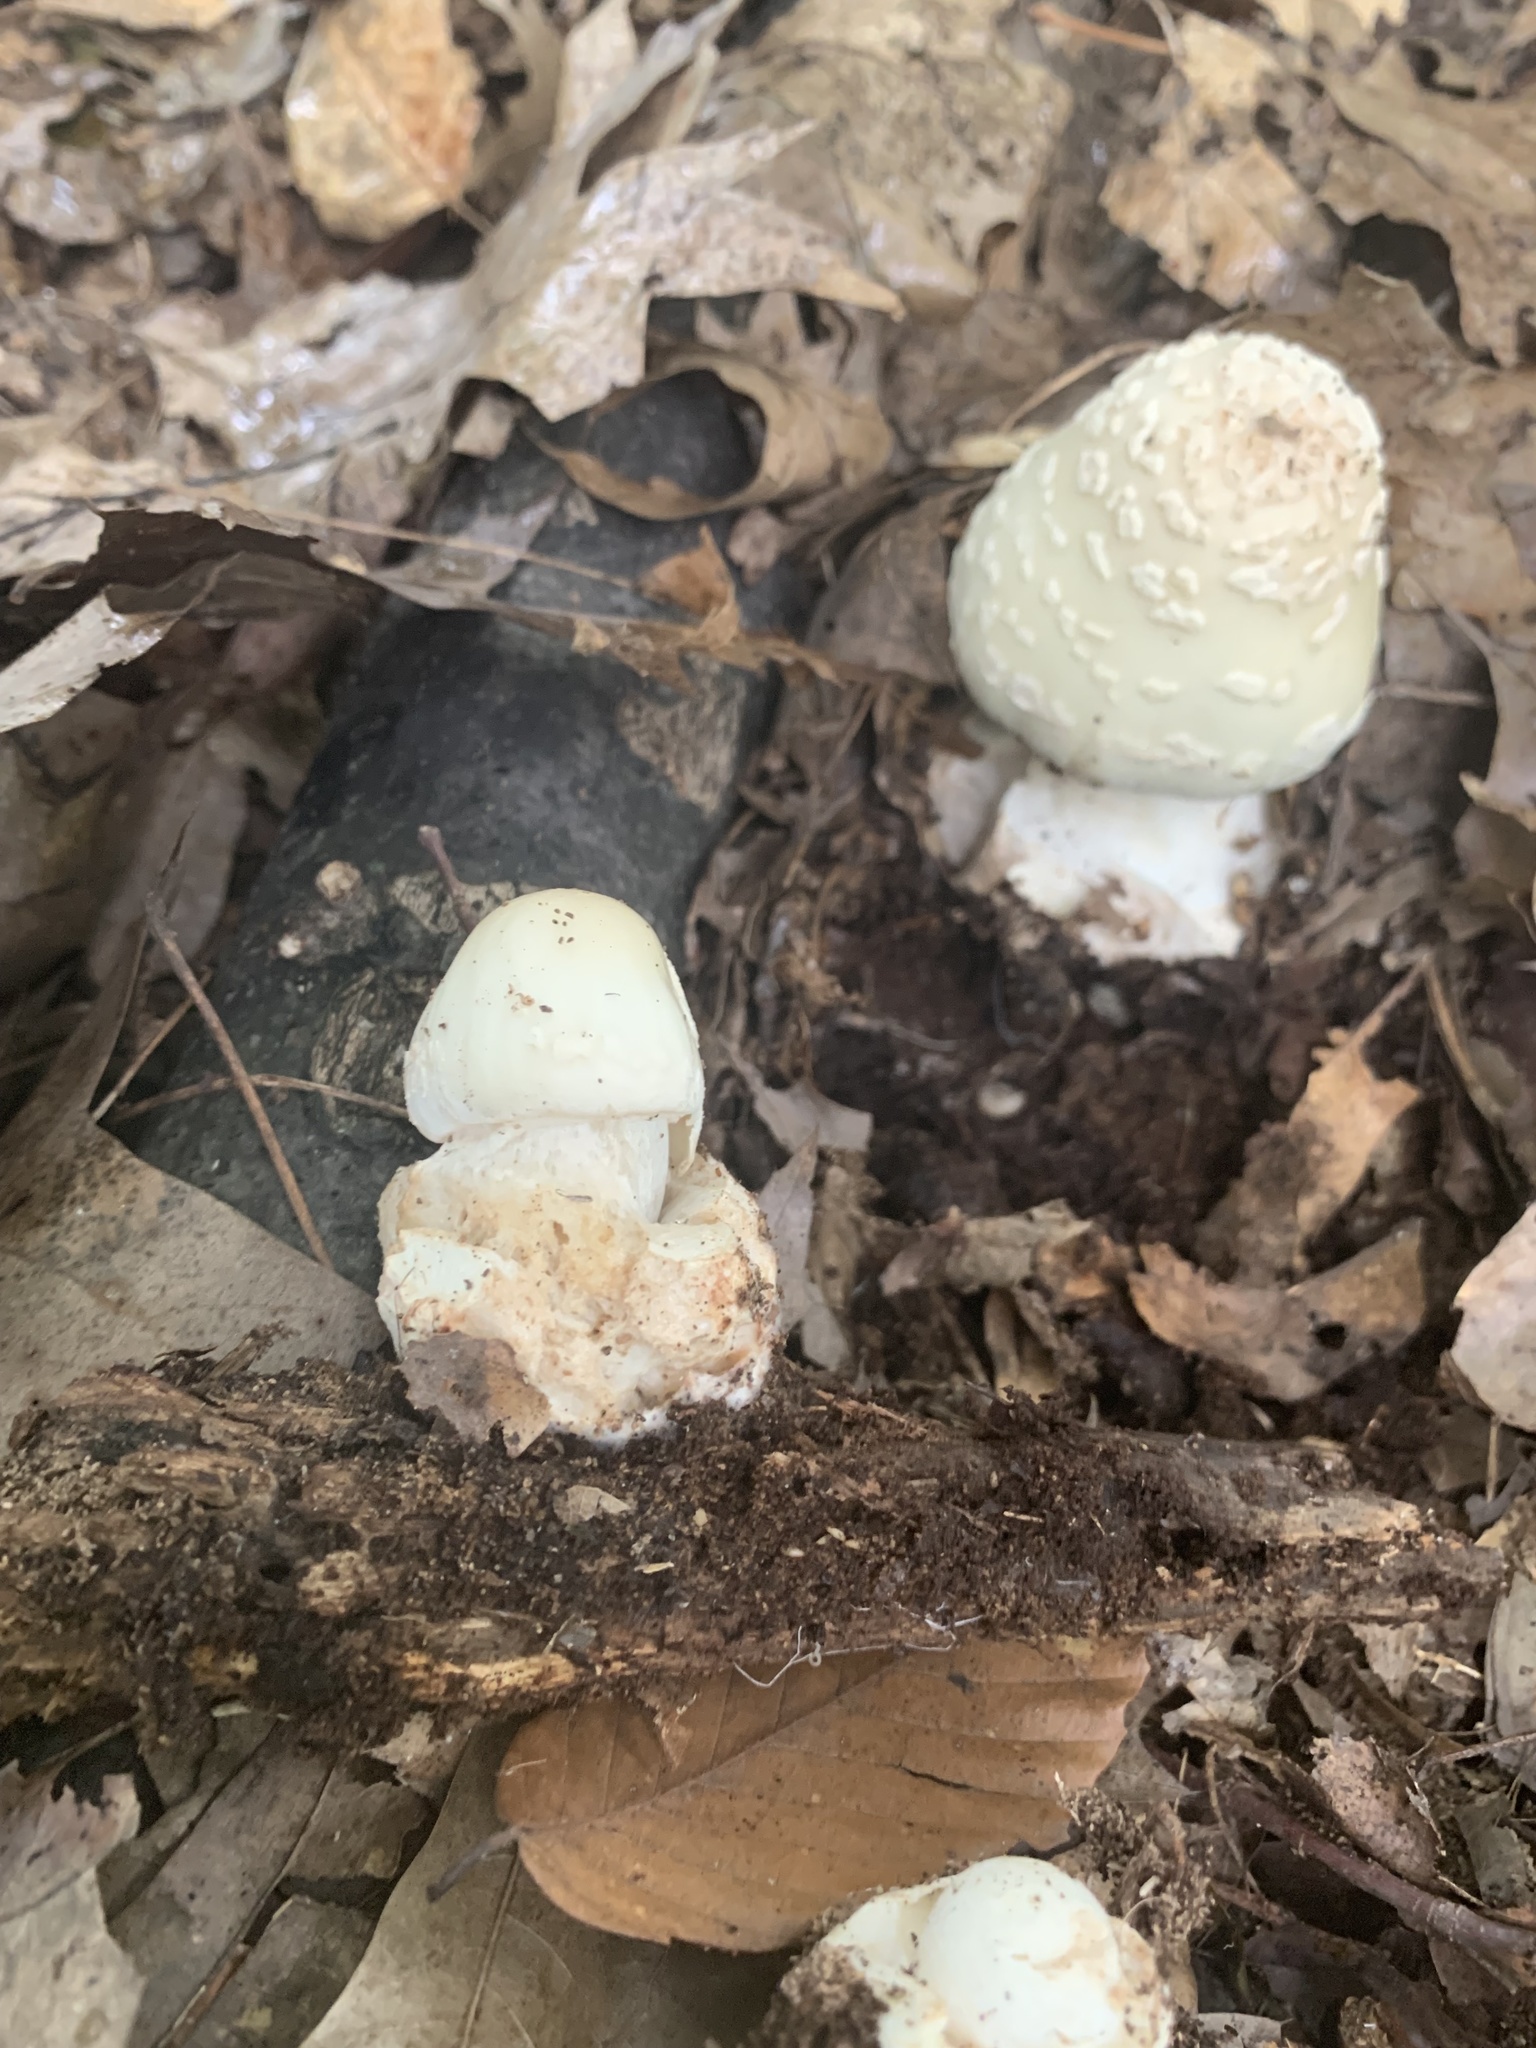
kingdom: Fungi
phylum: Basidiomycota
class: Agaricomycetes
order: Agaricales
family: Amanitaceae
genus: Amanita
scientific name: Amanita brunnescens
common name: Brown american star-footed amanita
